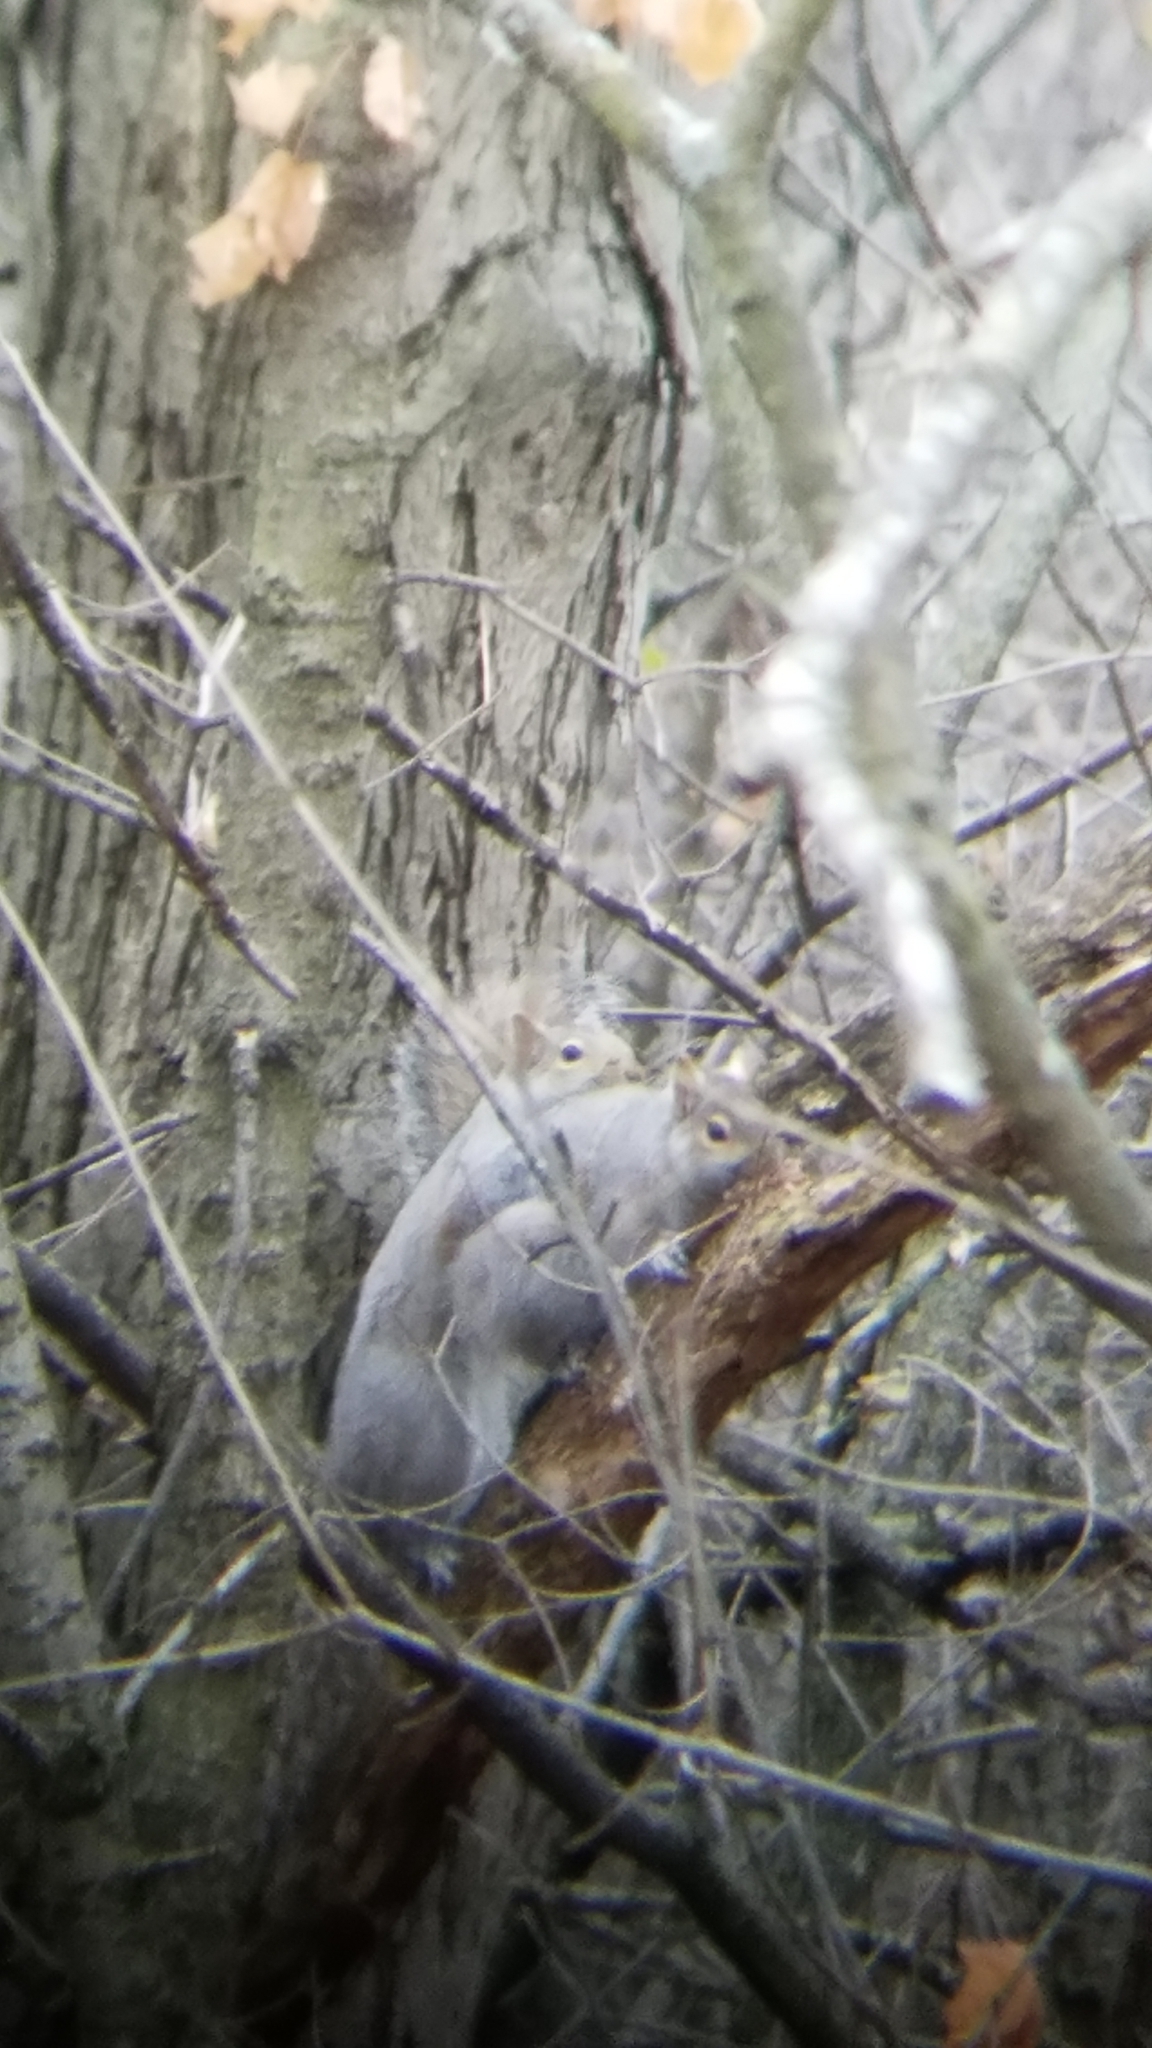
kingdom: Animalia
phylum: Chordata
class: Mammalia
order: Rodentia
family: Sciuridae
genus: Sciurus
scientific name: Sciurus carolinensis
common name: Eastern gray squirrel
